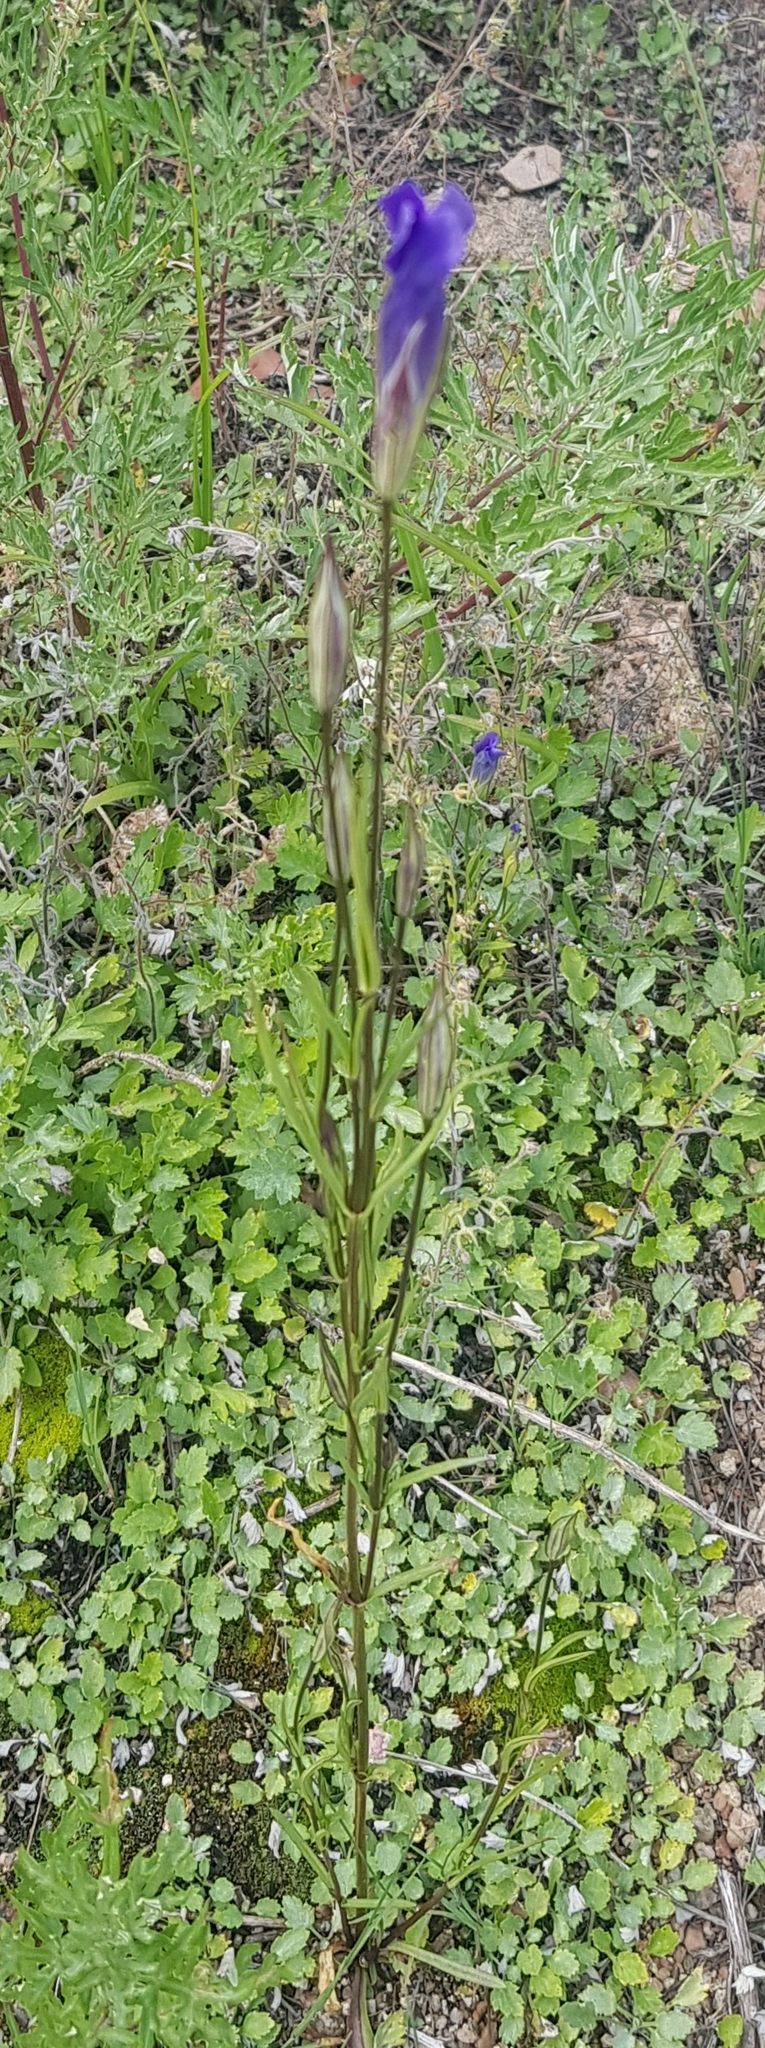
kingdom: Plantae
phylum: Tracheophyta
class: Magnoliopsida
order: Gentianales
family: Gentianaceae
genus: Gentianopsis
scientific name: Gentianopsis barbata
